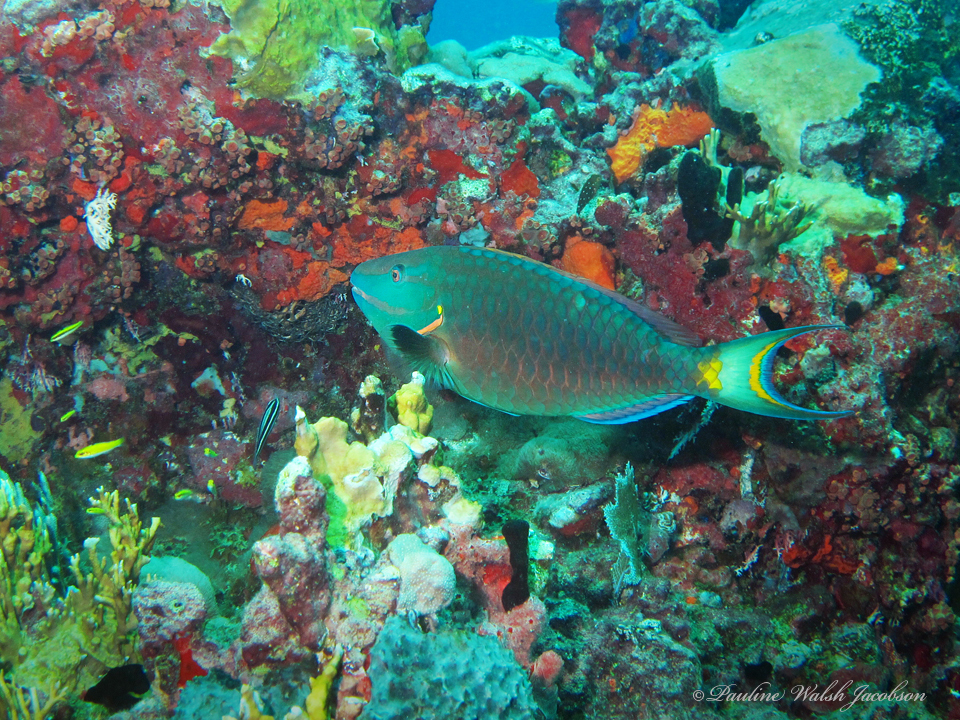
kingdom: Animalia
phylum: Chordata
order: Perciformes
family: Scaridae
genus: Sparisoma
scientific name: Sparisoma viride
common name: Stoplight parrotfish
